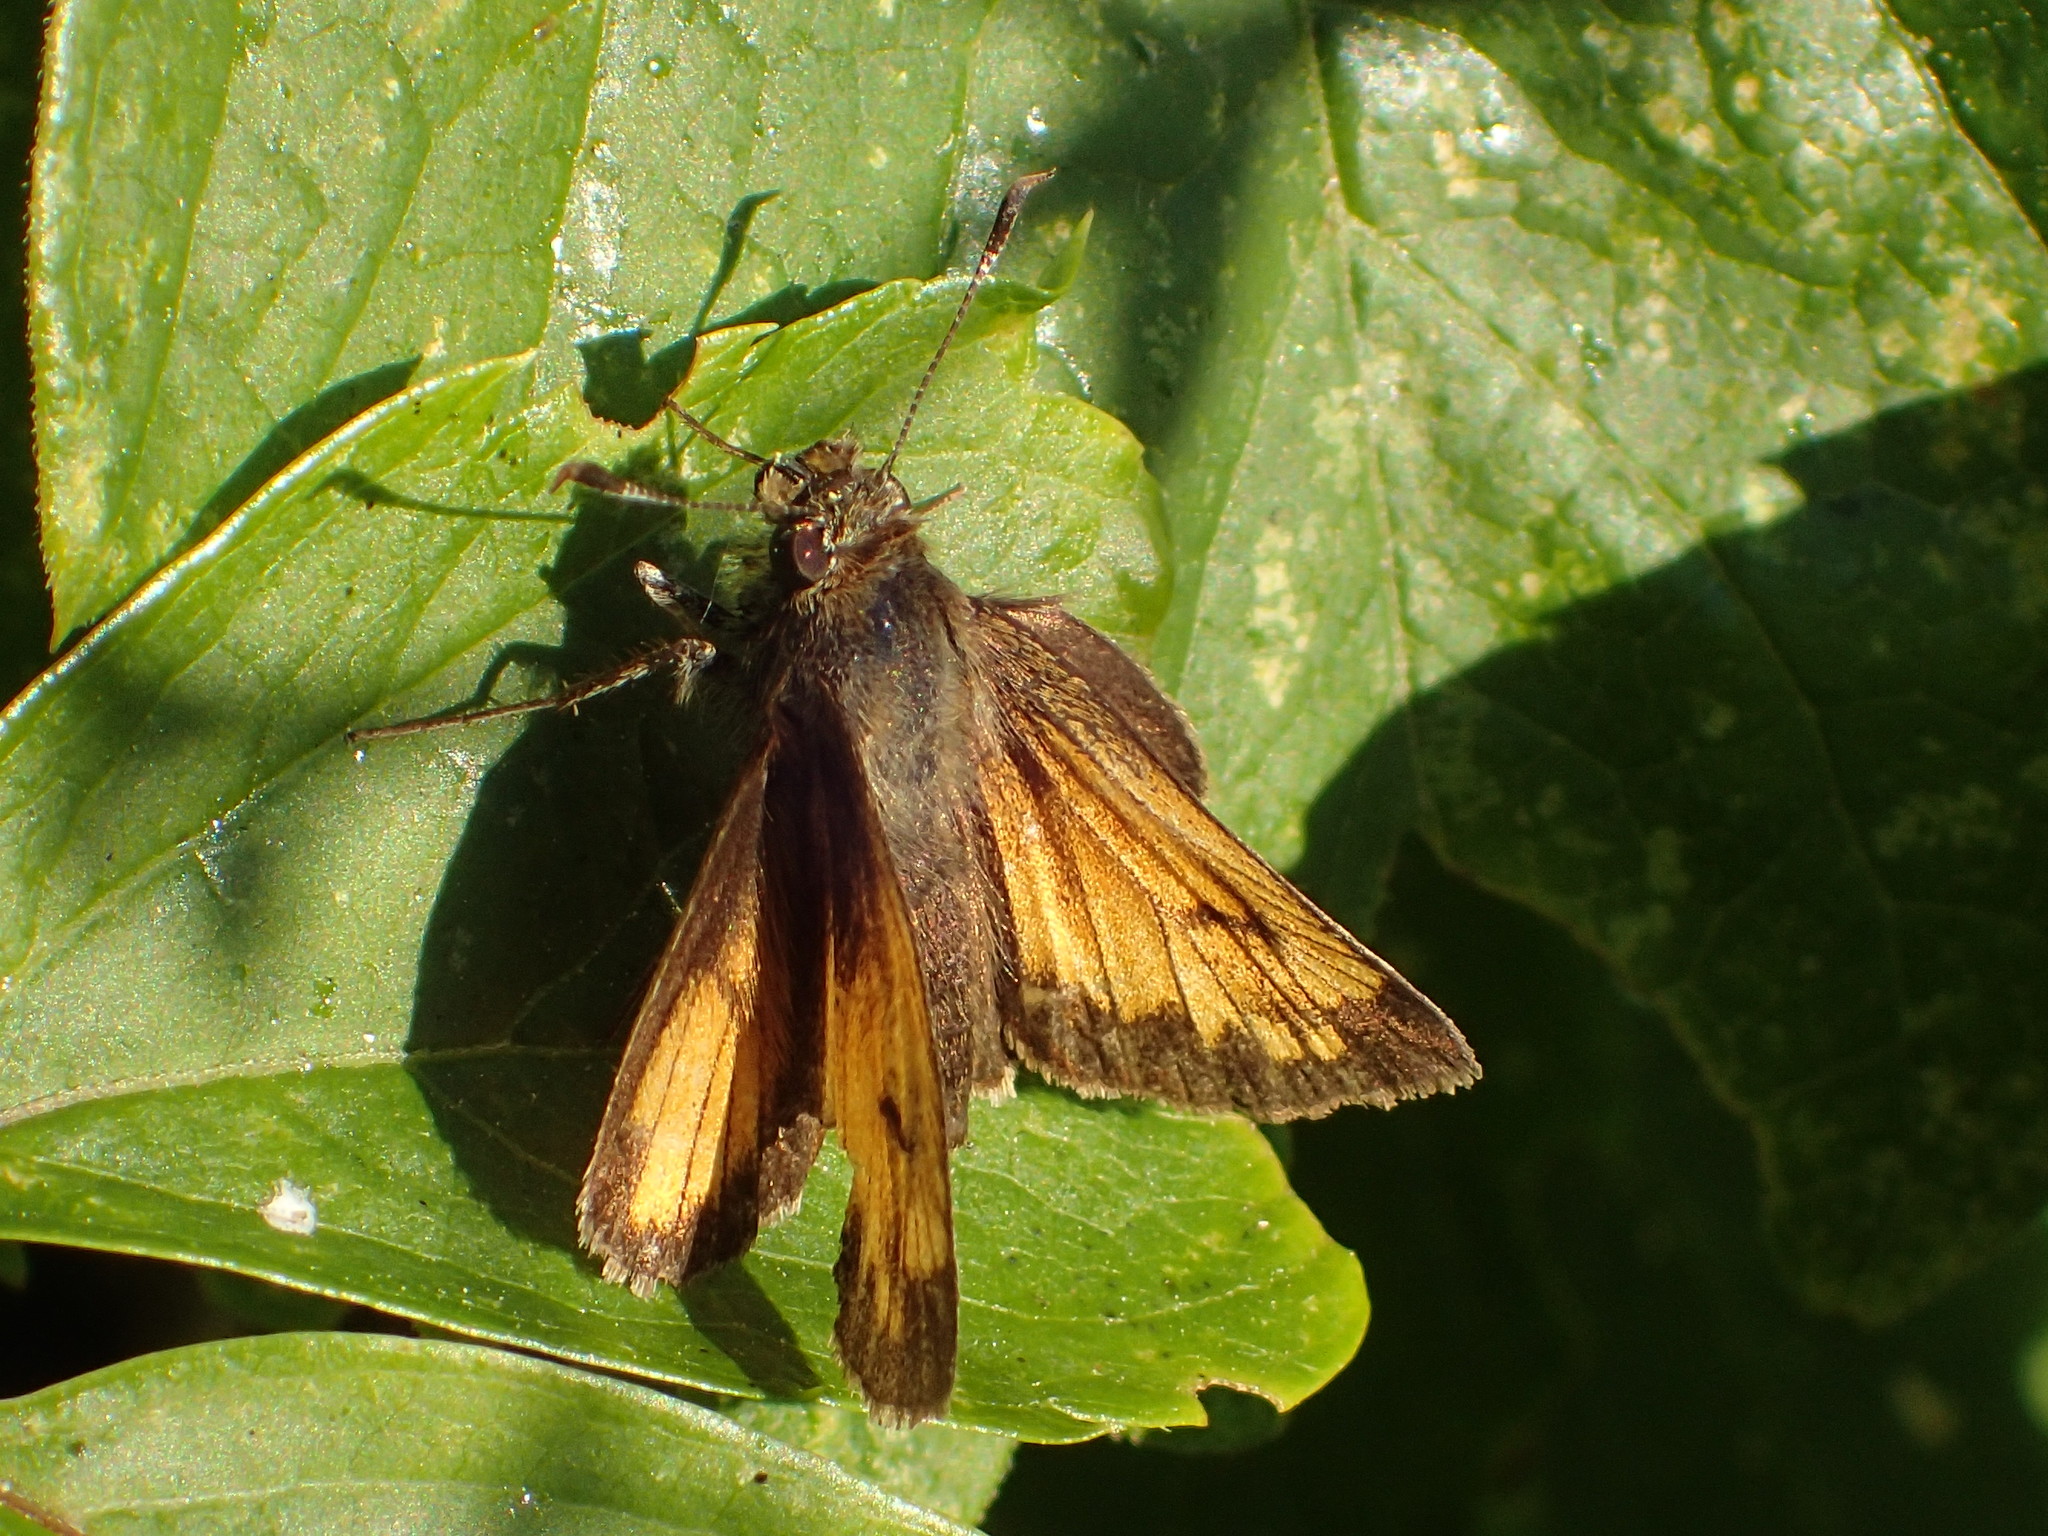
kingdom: Animalia
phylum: Arthropoda
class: Insecta
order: Lepidoptera
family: Hesperiidae
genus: Lon
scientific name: Lon hobomok
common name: Hobomok skipper
